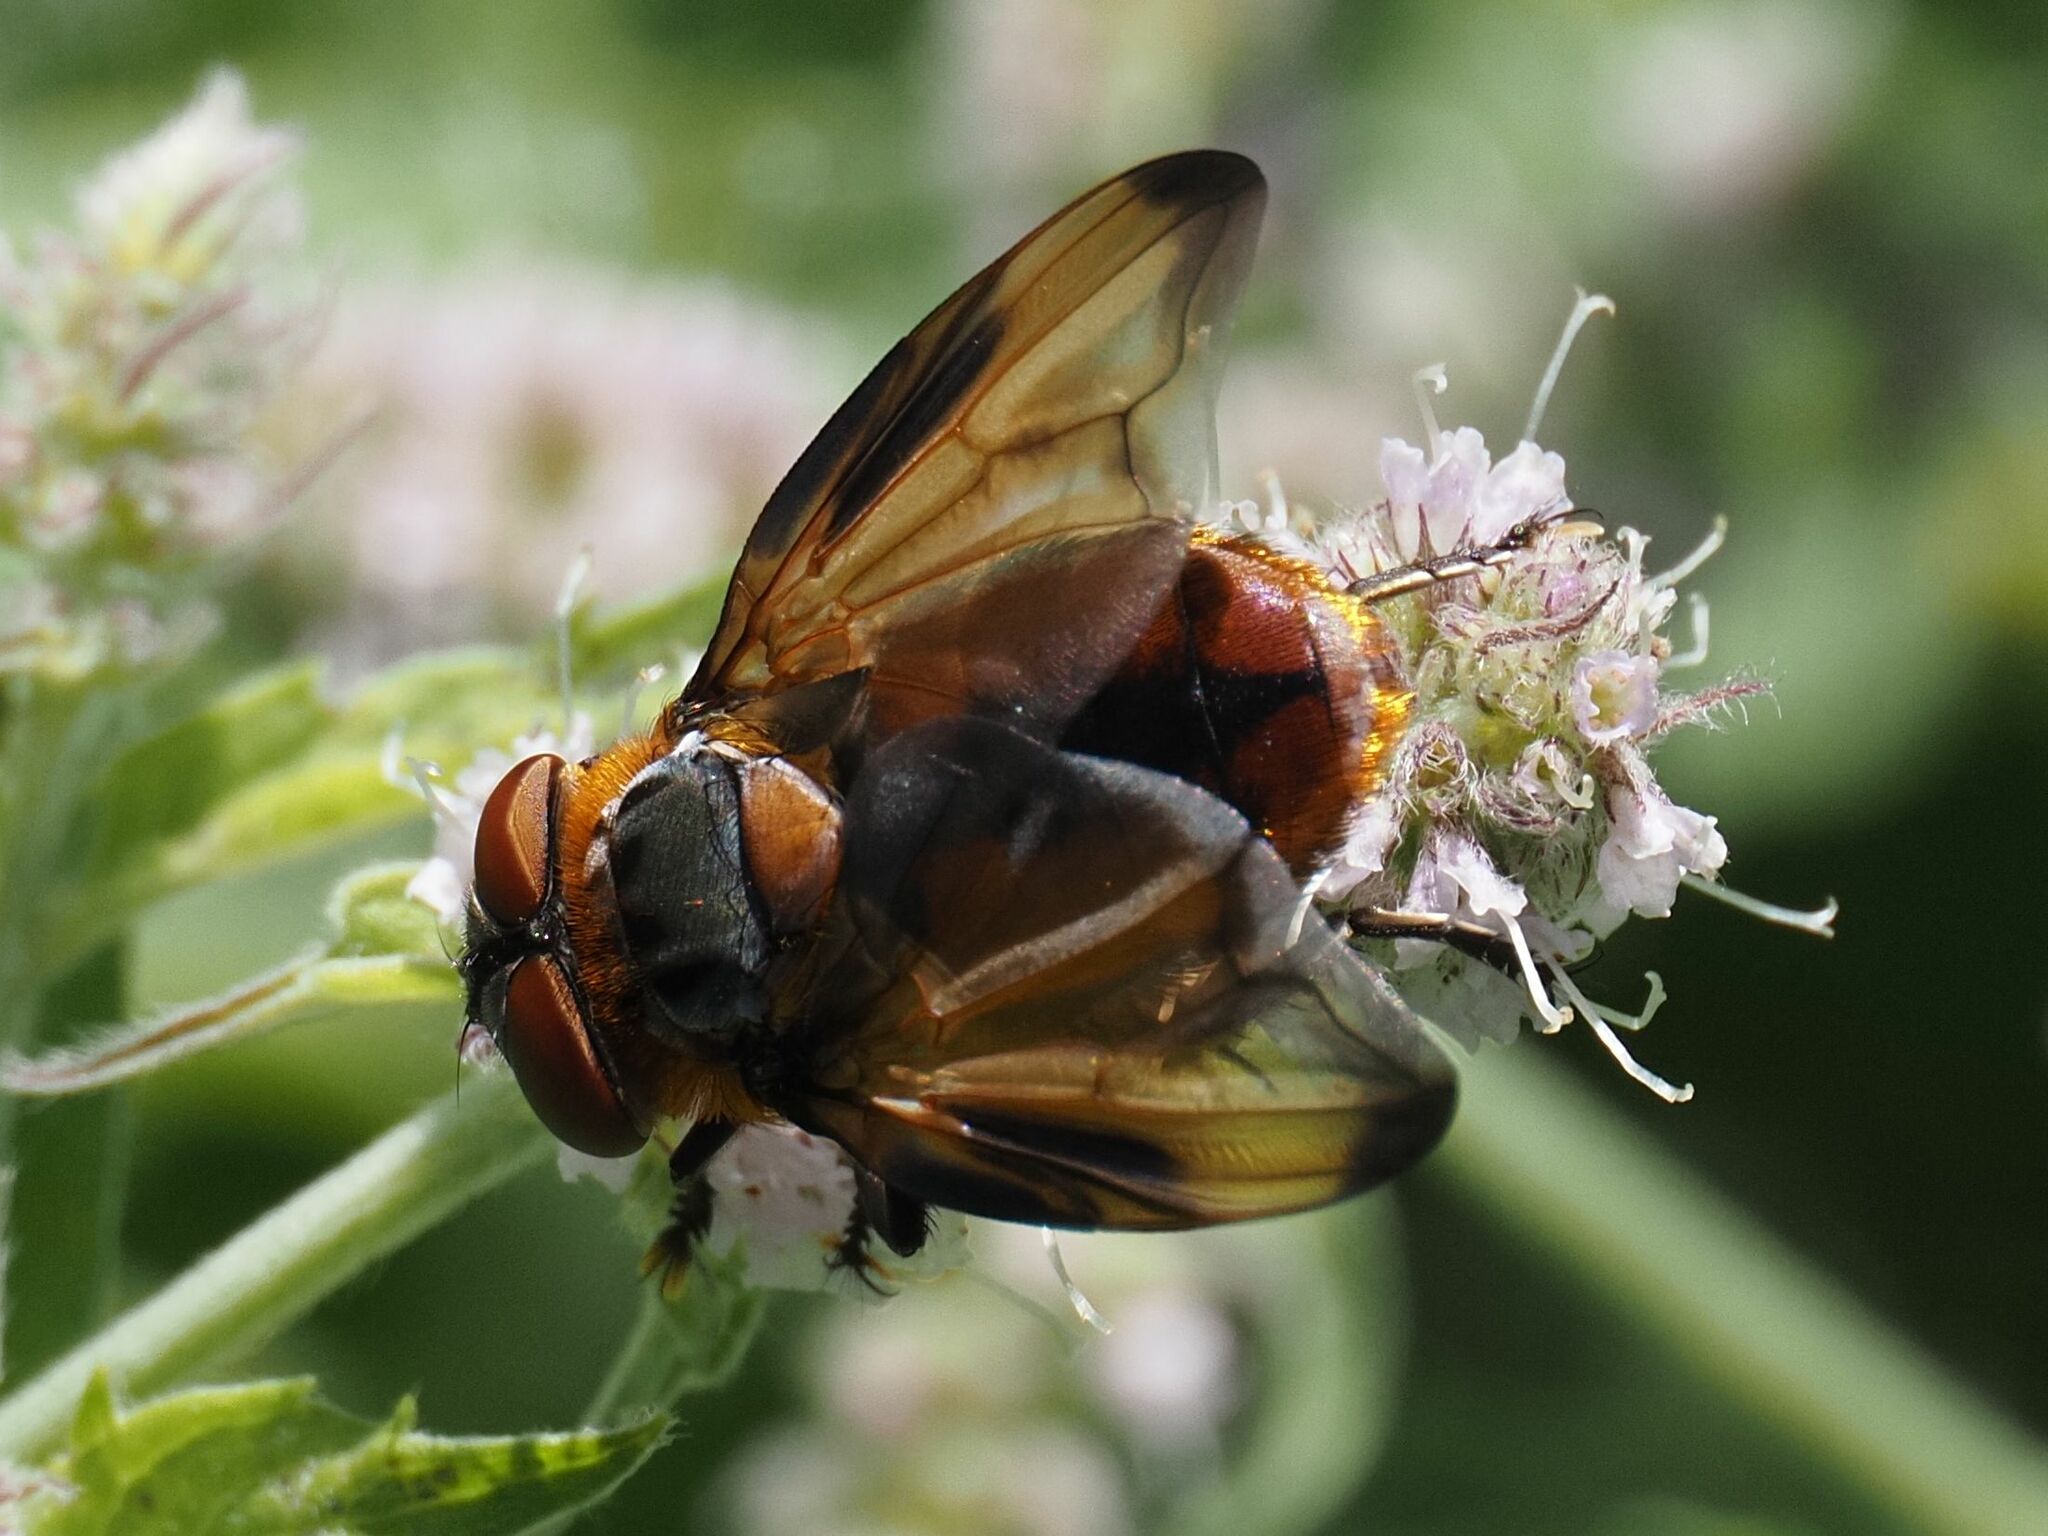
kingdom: Animalia
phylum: Arthropoda
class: Insecta
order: Diptera
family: Tachinidae
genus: Phasia
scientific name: Phasia hemiptera
